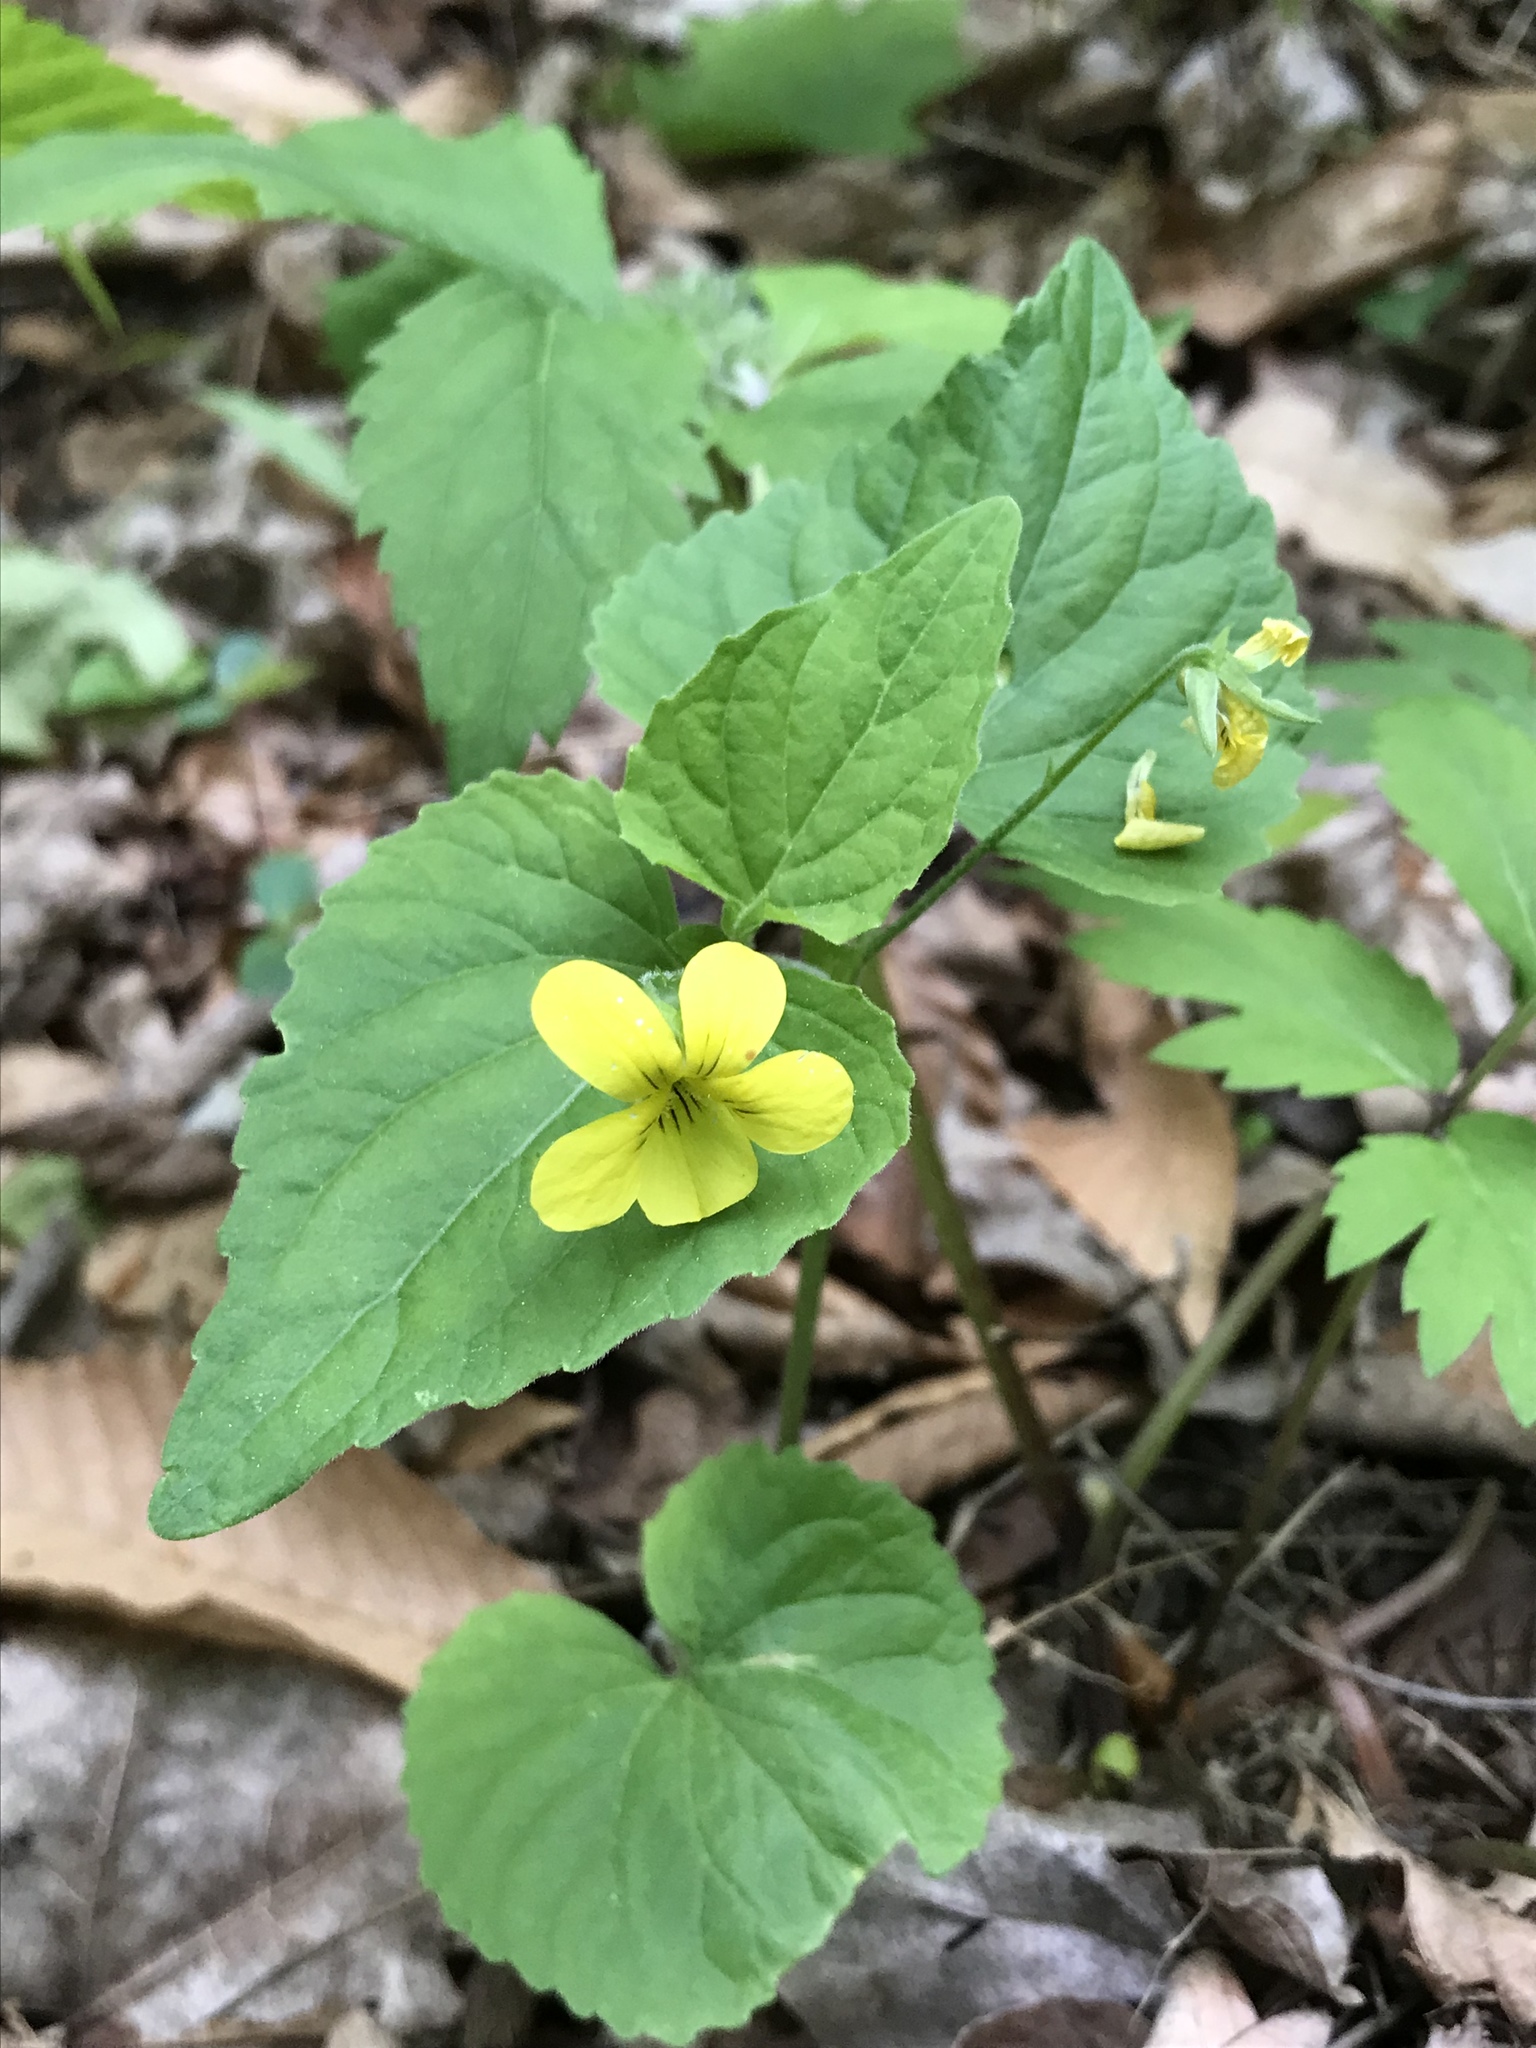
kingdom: Plantae
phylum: Tracheophyta
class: Magnoliopsida
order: Malpighiales
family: Violaceae
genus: Viola
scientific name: Viola eriocarpa
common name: Smooth yellow violet
